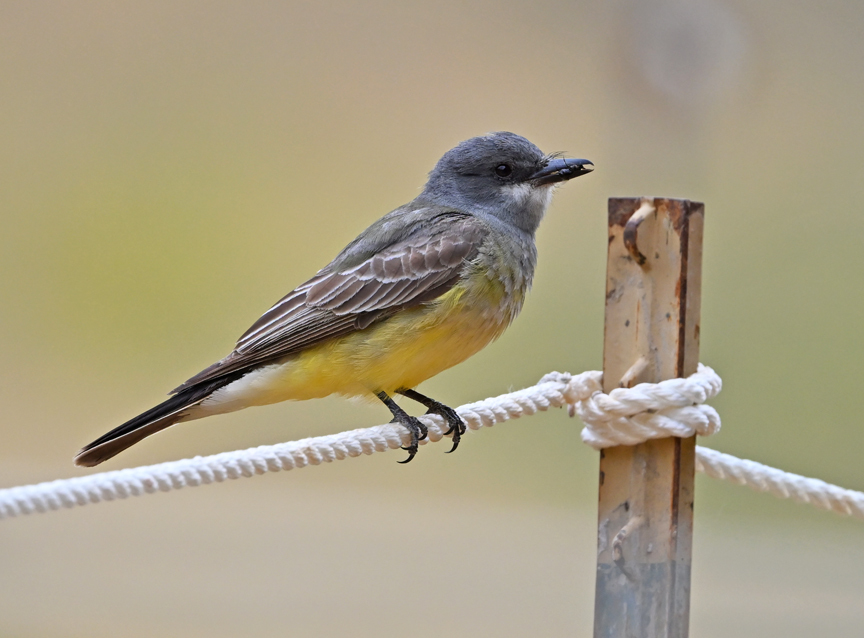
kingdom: Animalia
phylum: Chordata
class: Aves
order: Passeriformes
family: Tyrannidae
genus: Tyrannus
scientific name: Tyrannus vociferans
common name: Cassin's kingbird
